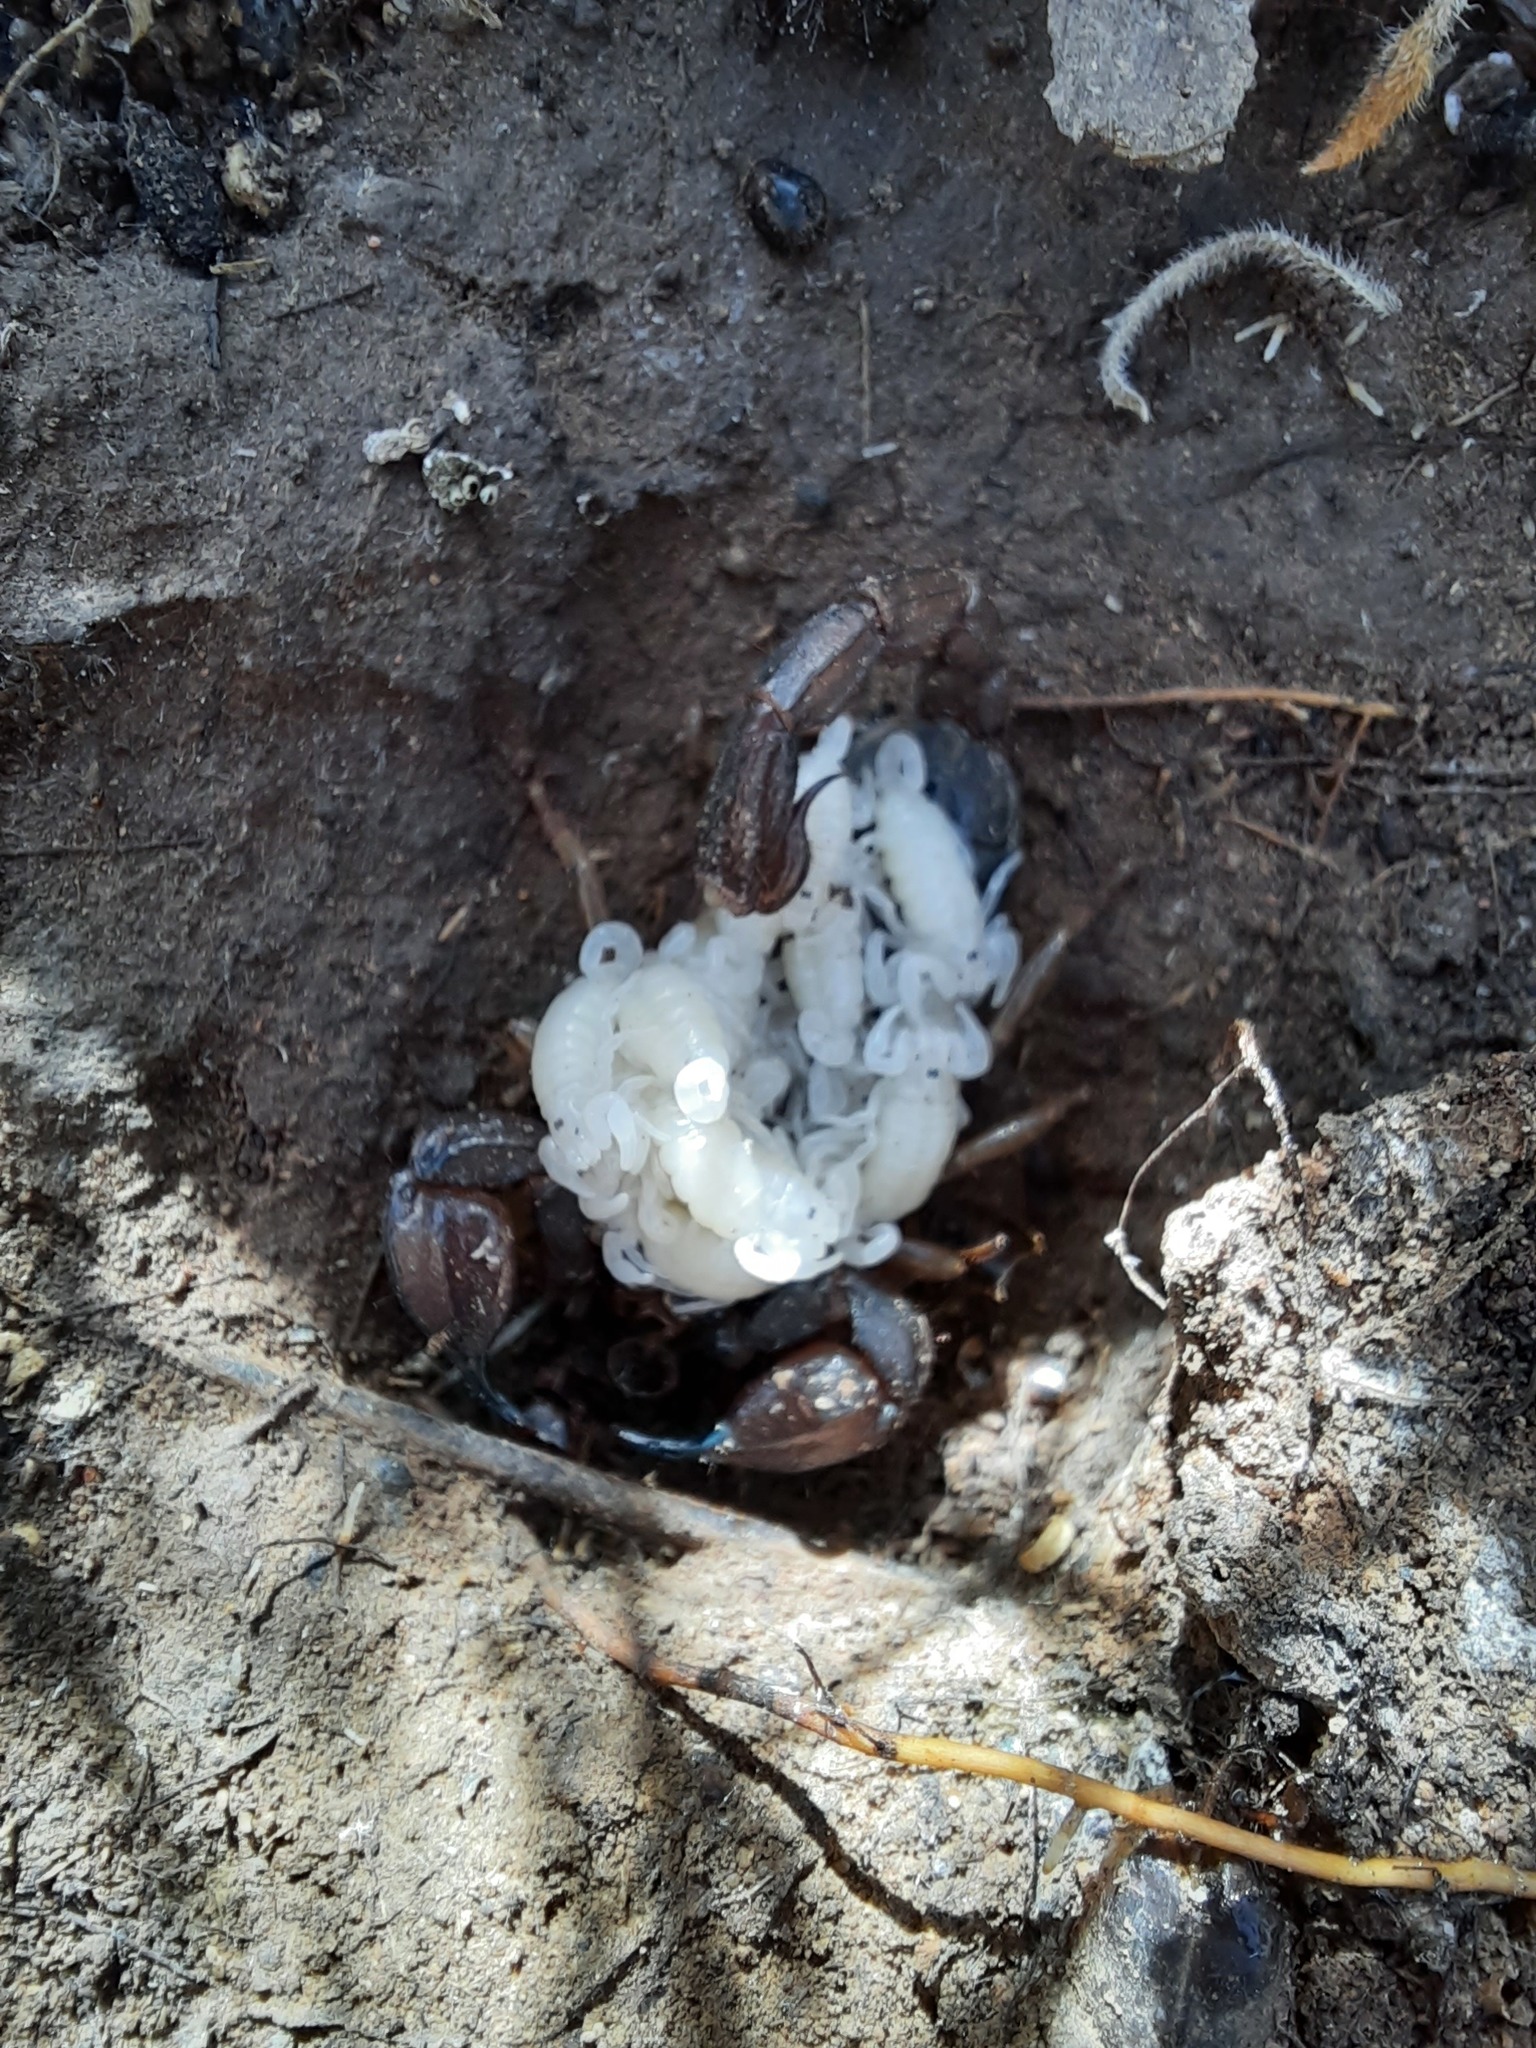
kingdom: Animalia
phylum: Arthropoda
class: Arachnida
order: Scorpiones
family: Scorpionidae
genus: Urodacus
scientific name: Urodacus manicatus
